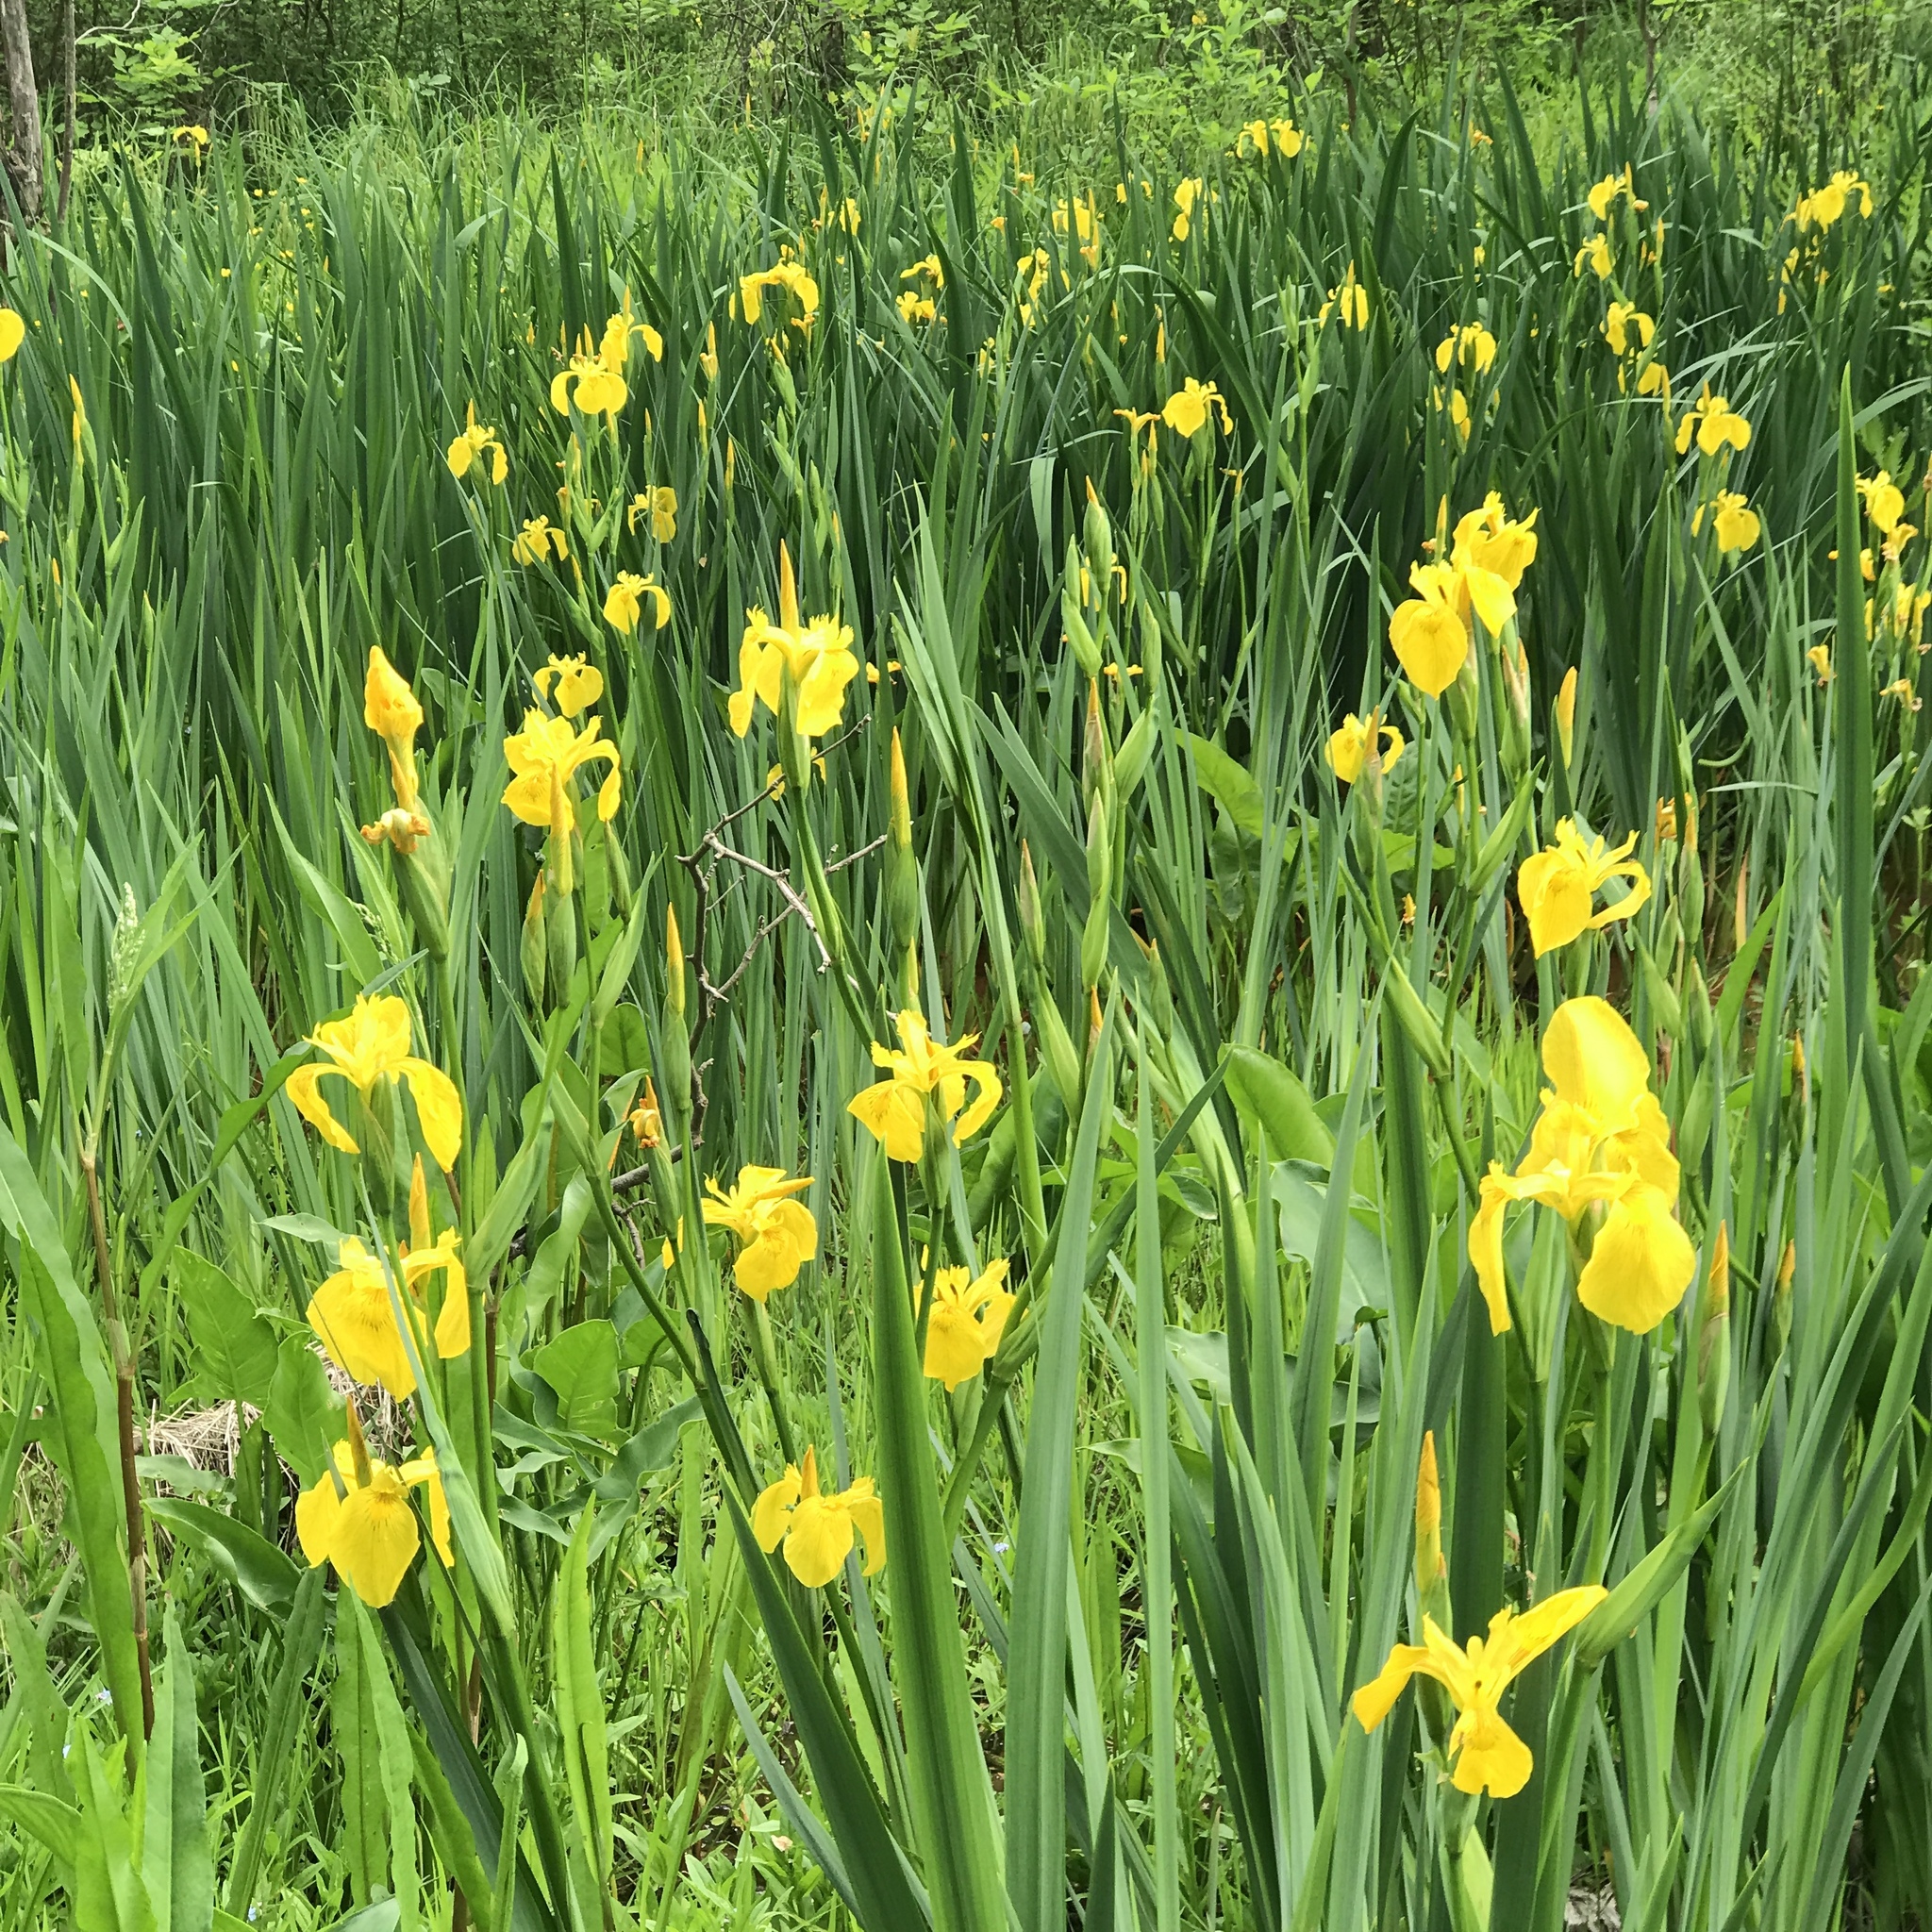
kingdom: Plantae
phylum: Tracheophyta
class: Liliopsida
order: Asparagales
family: Iridaceae
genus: Iris
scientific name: Iris pseudacorus
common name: Yellow flag
